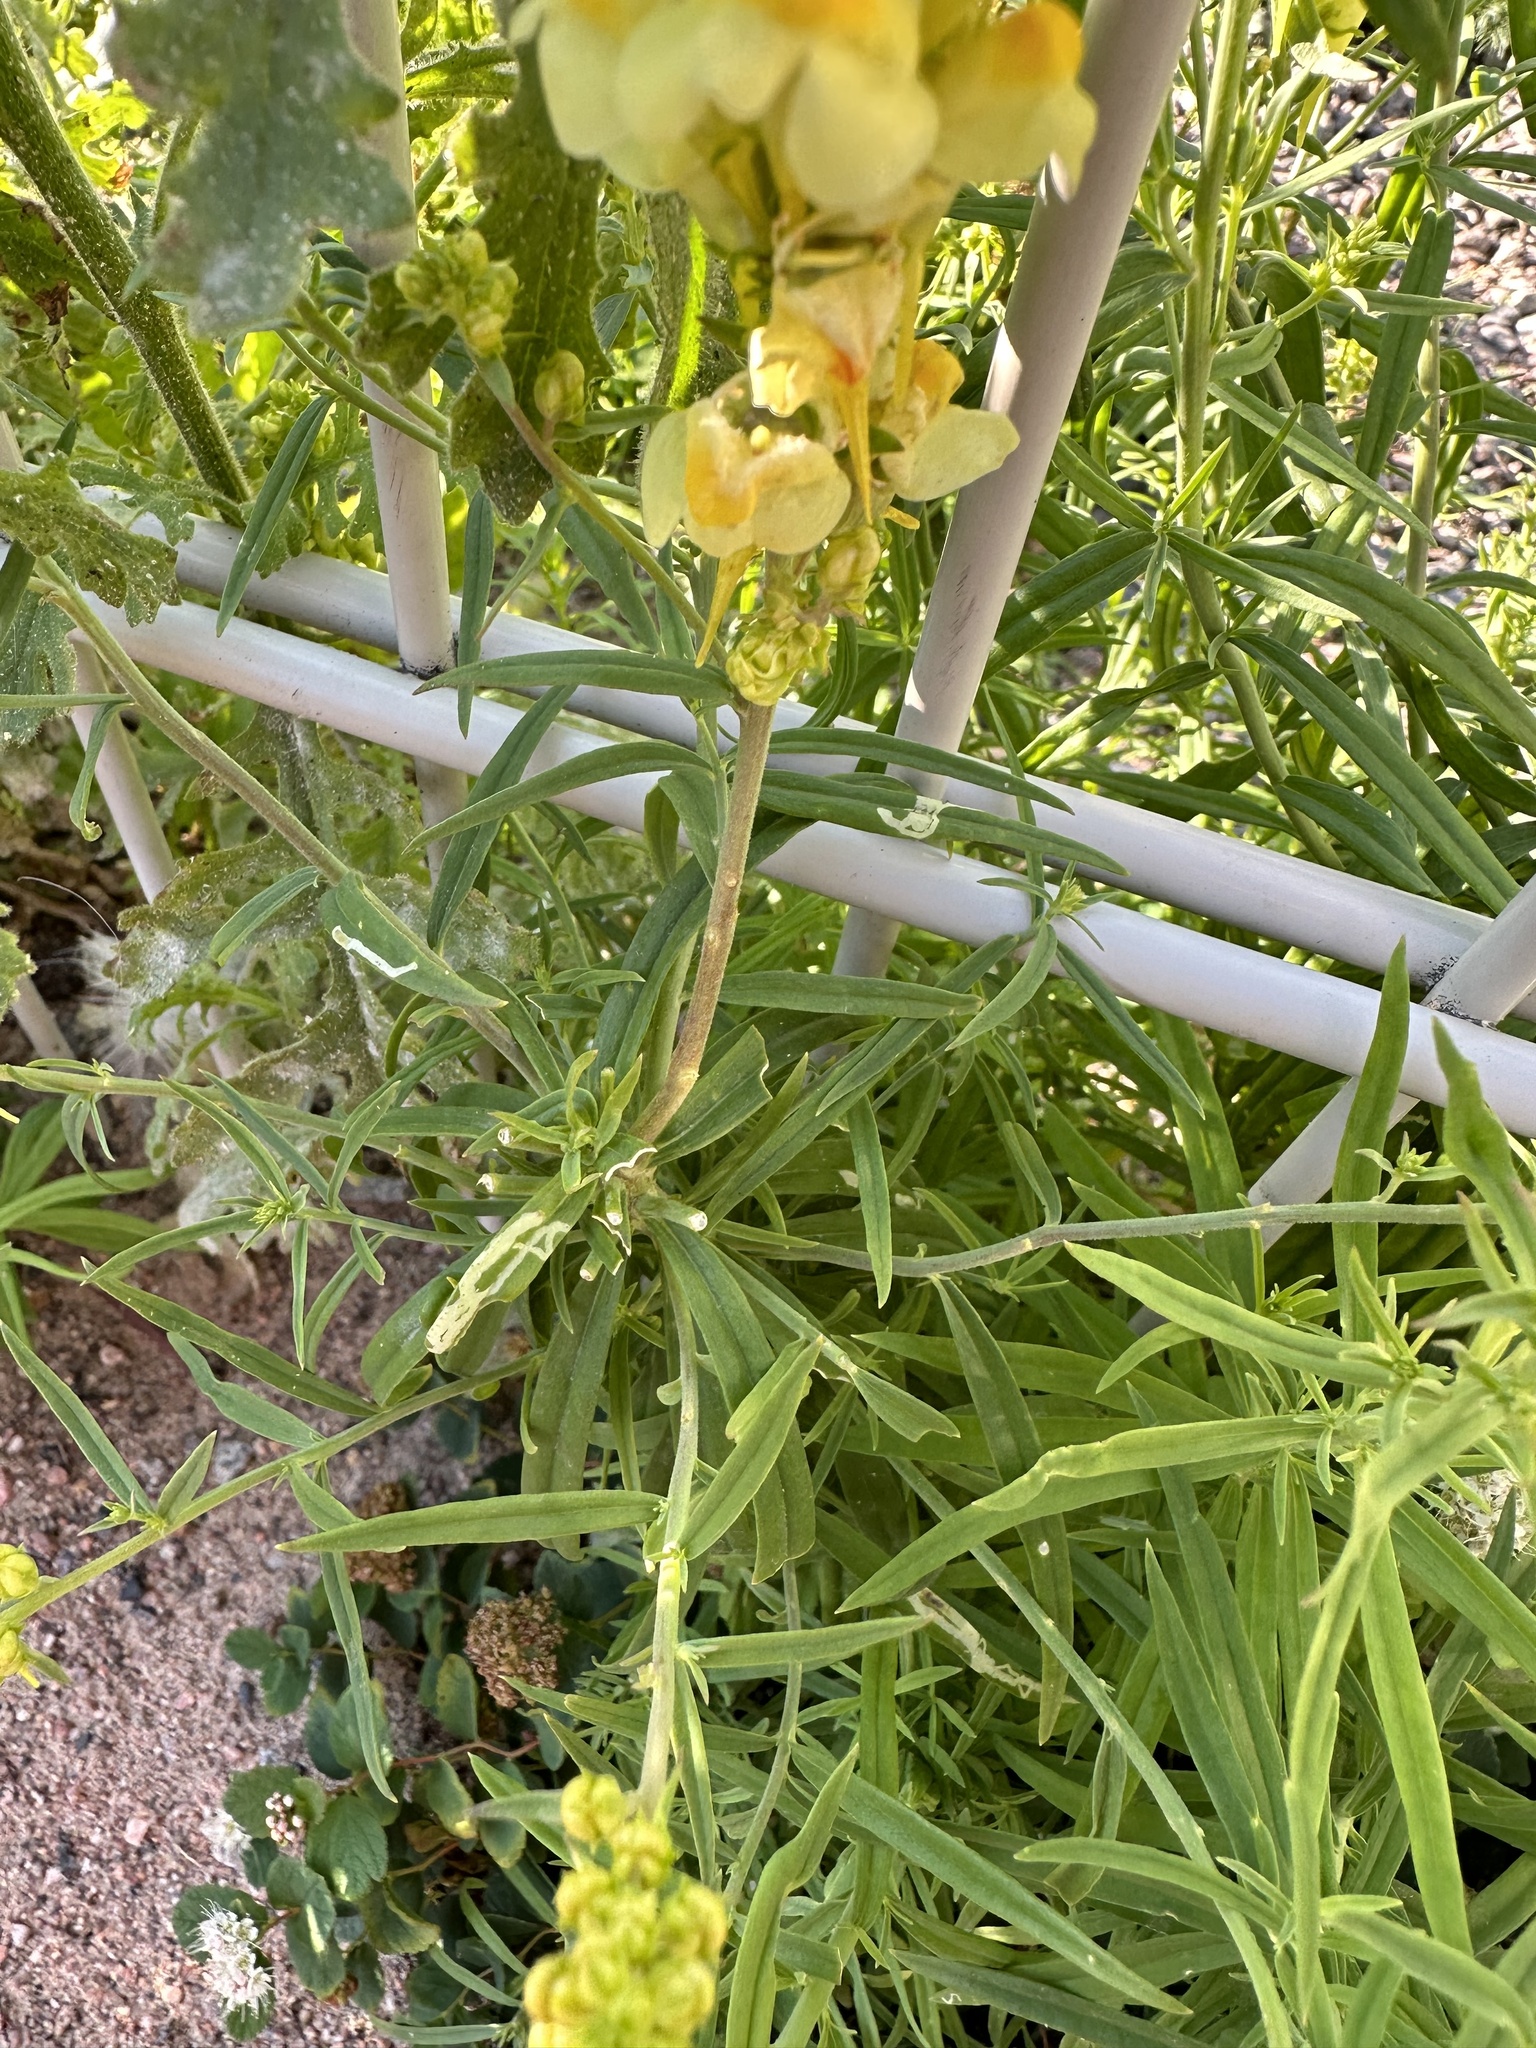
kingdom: Plantae
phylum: Tracheophyta
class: Magnoliopsida
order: Lamiales
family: Plantaginaceae
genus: Linaria
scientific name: Linaria vulgaris
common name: Butter and eggs
